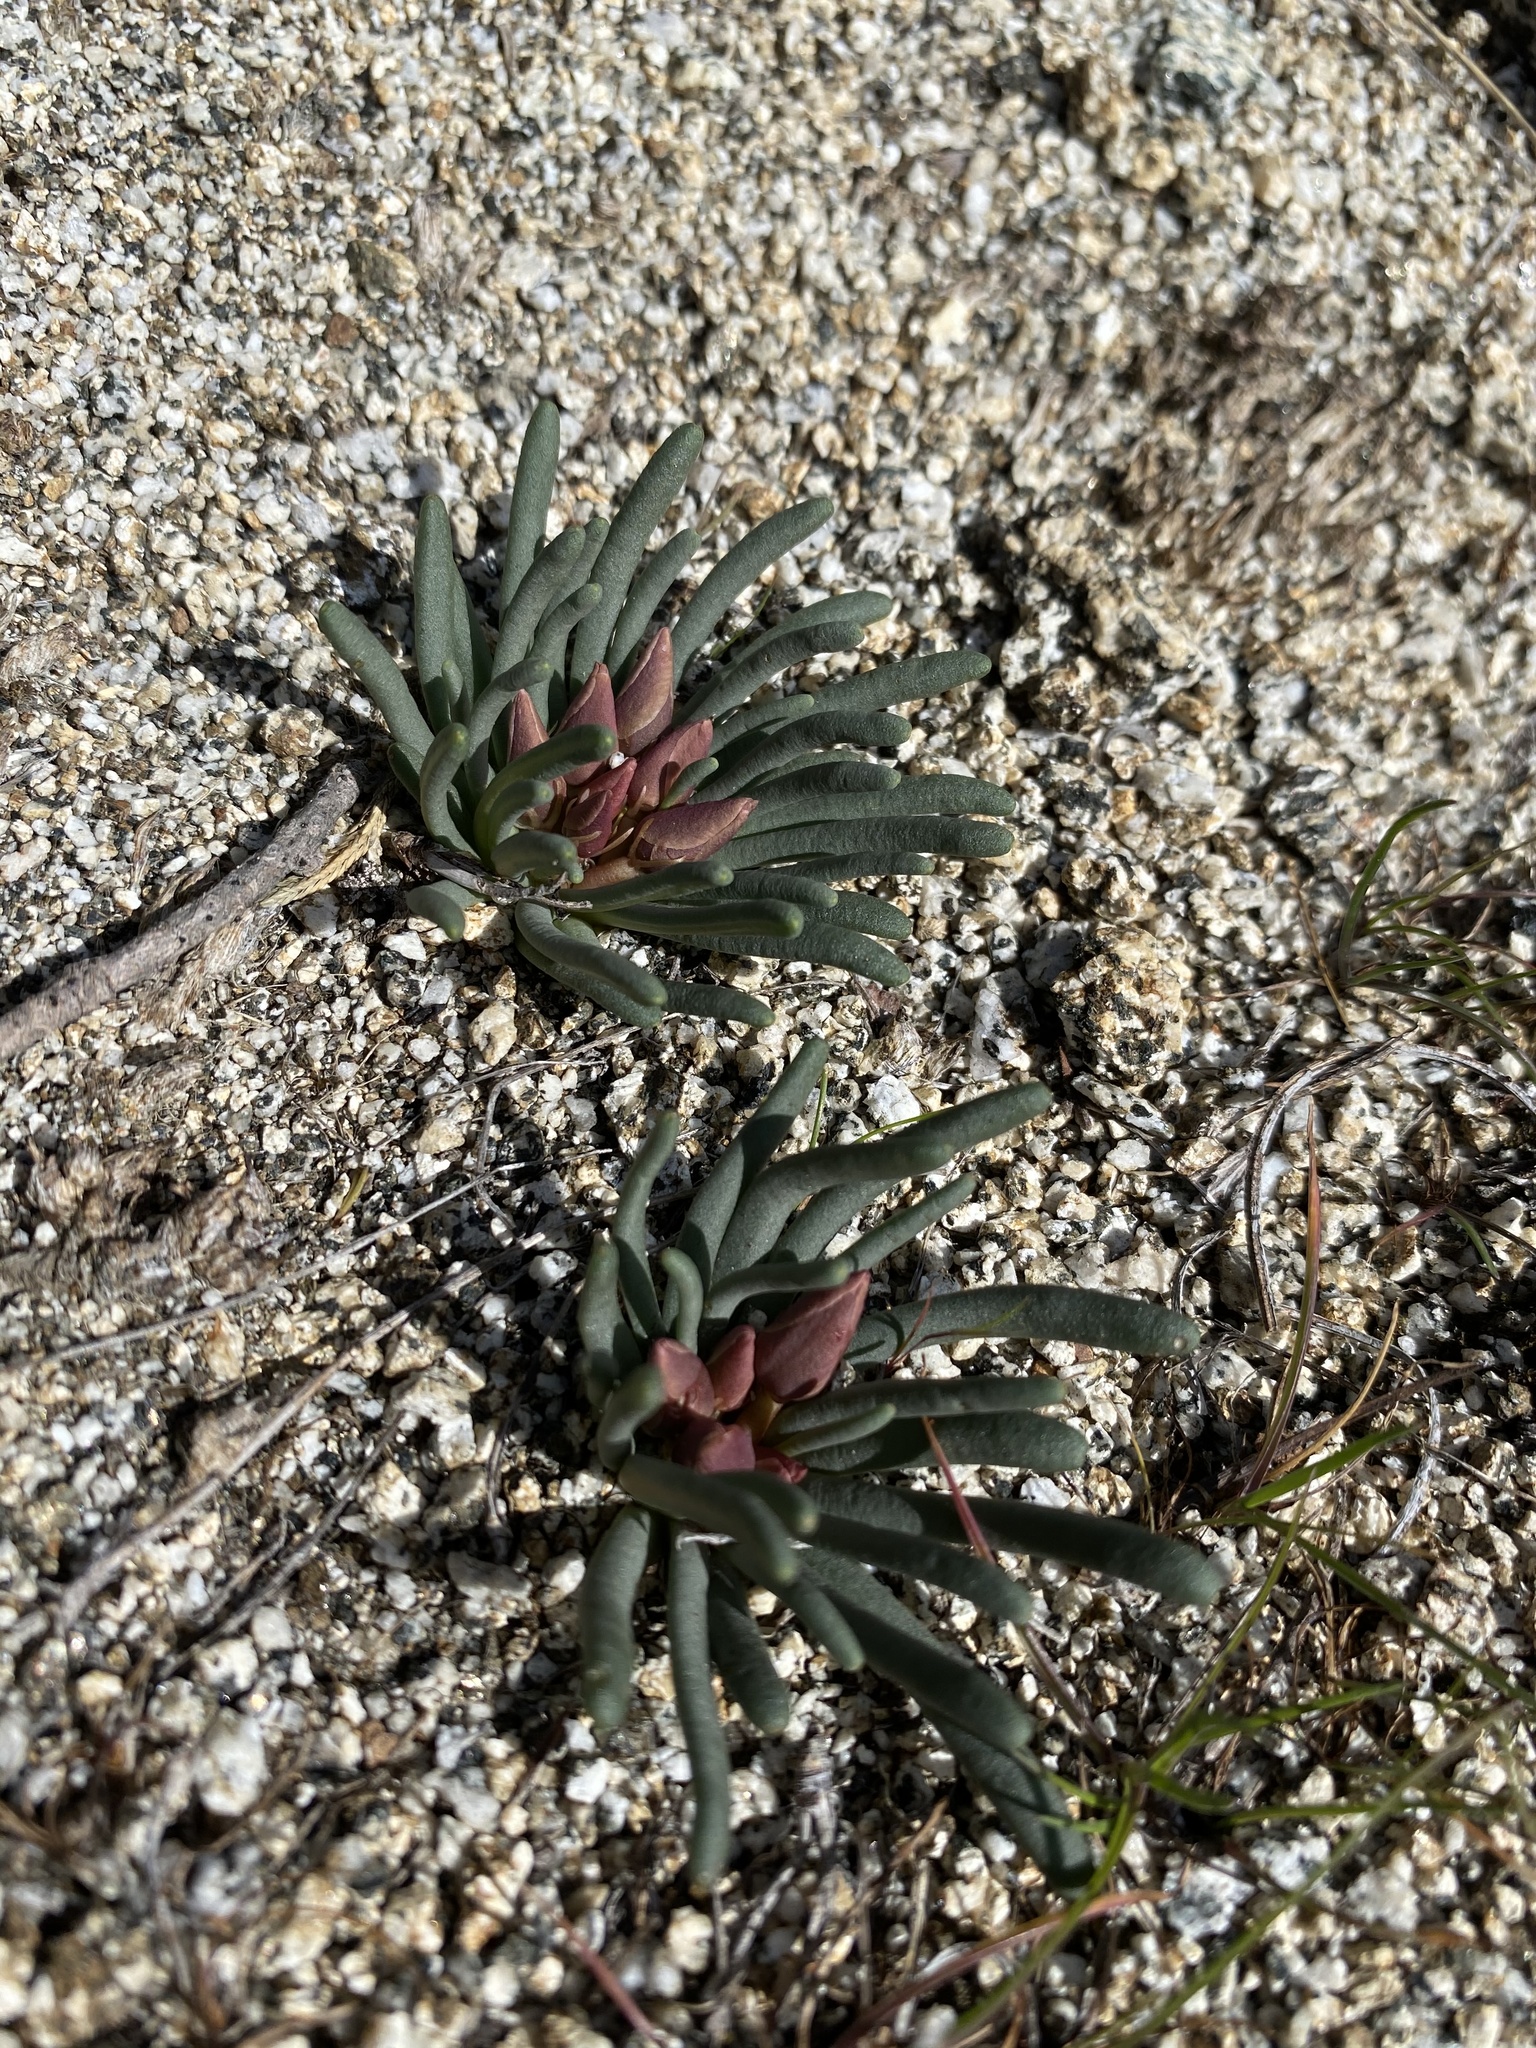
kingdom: Plantae
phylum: Tracheophyta
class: Magnoliopsida
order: Caryophyllales
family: Montiaceae
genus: Lewisia
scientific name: Lewisia rediviva
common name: Bitter-root
